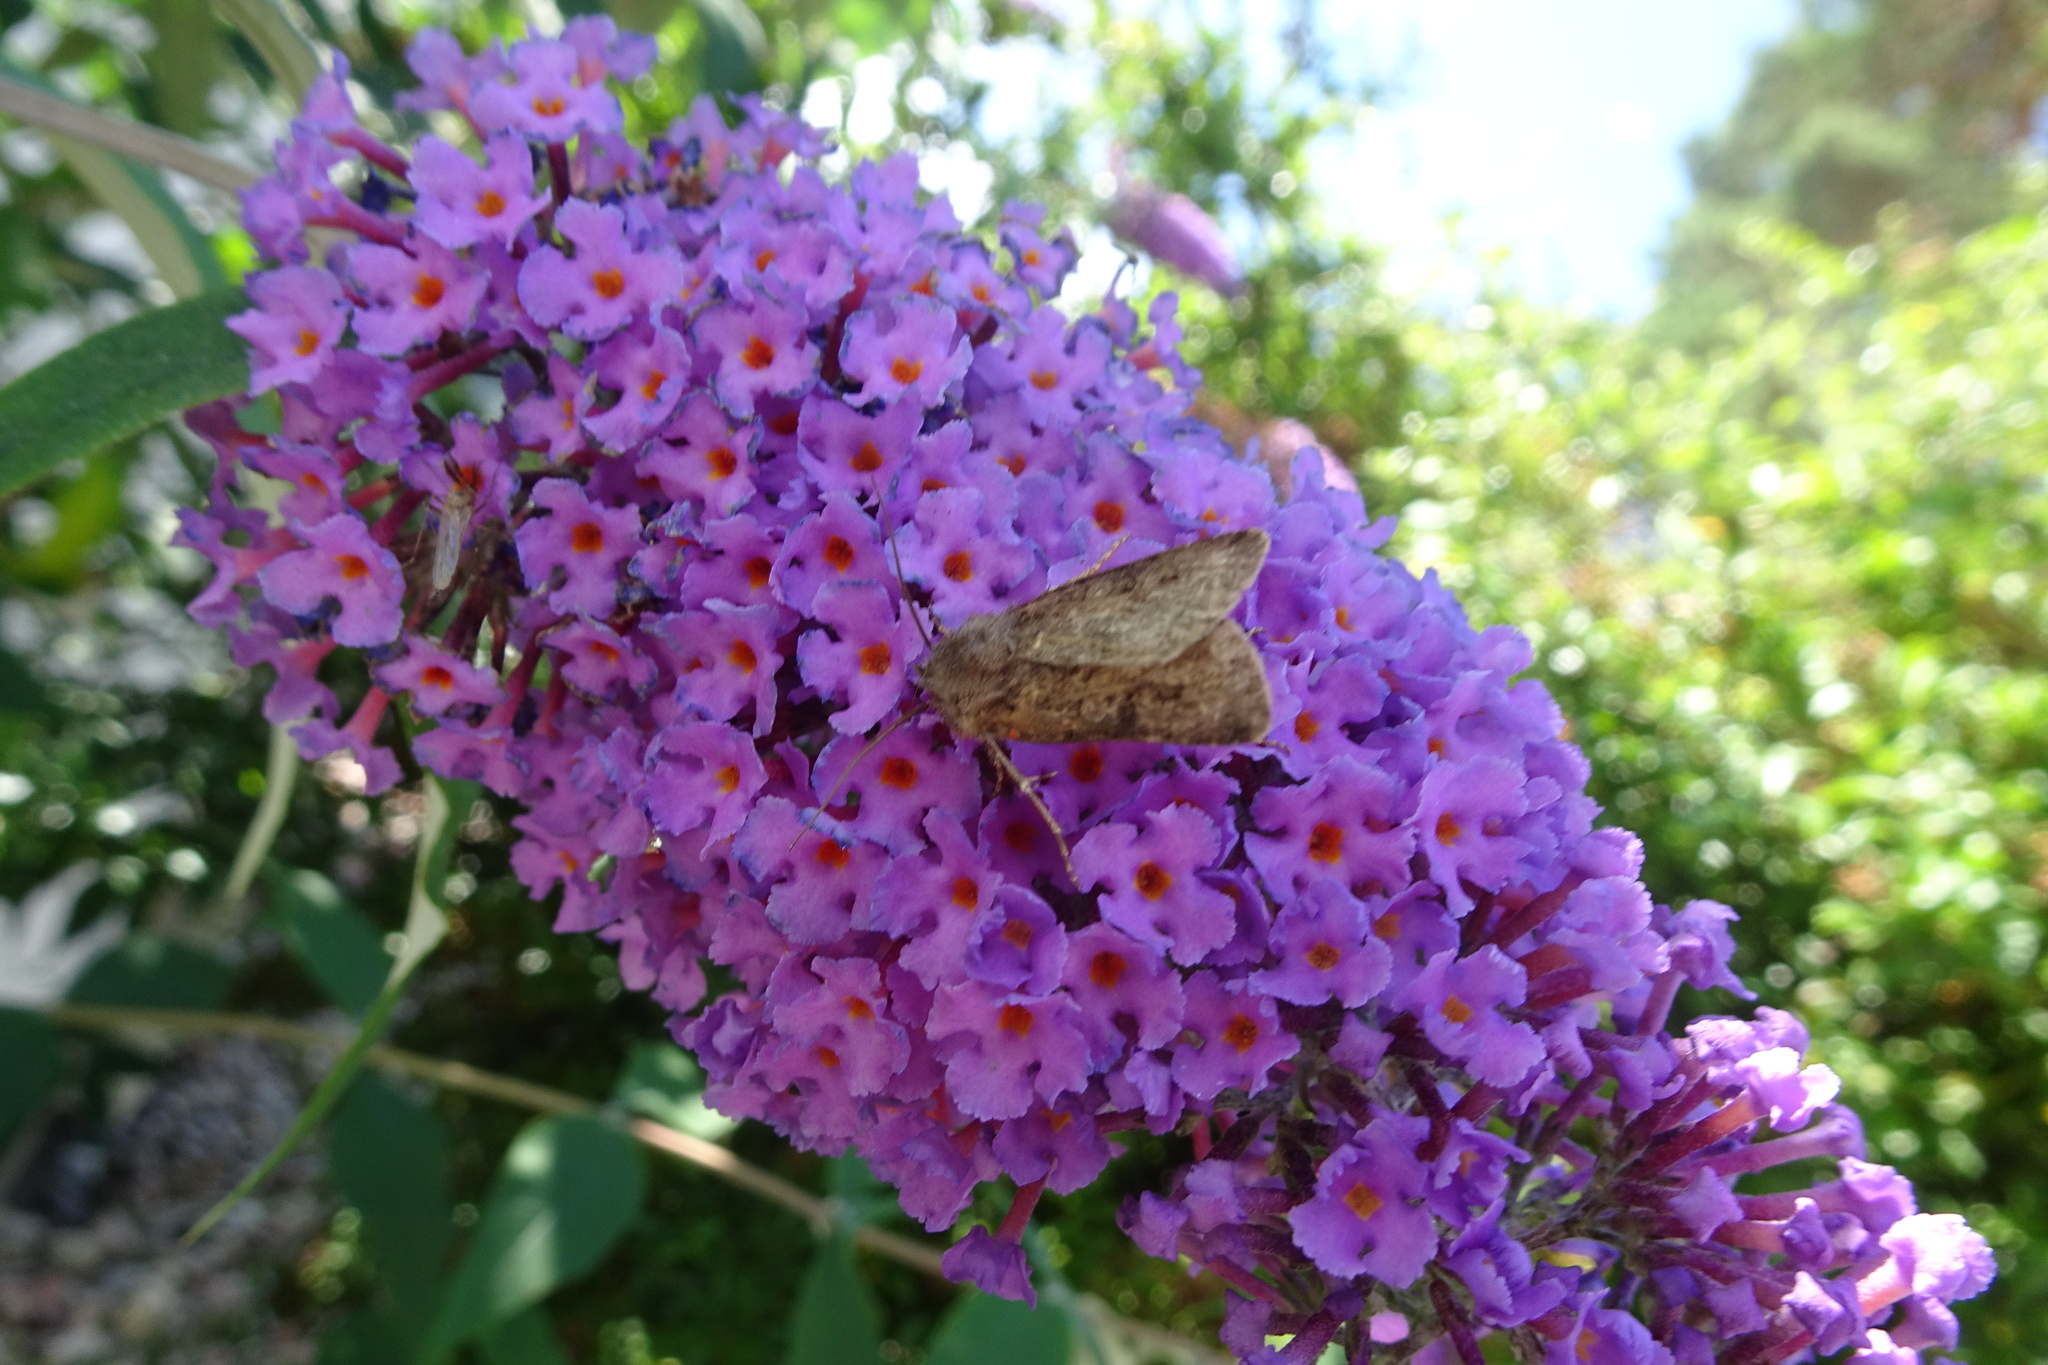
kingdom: Animalia
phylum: Arthropoda
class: Insecta
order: Lepidoptera
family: Noctuidae
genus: Agrotis
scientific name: Agrotis segetum
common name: Turnip moth
